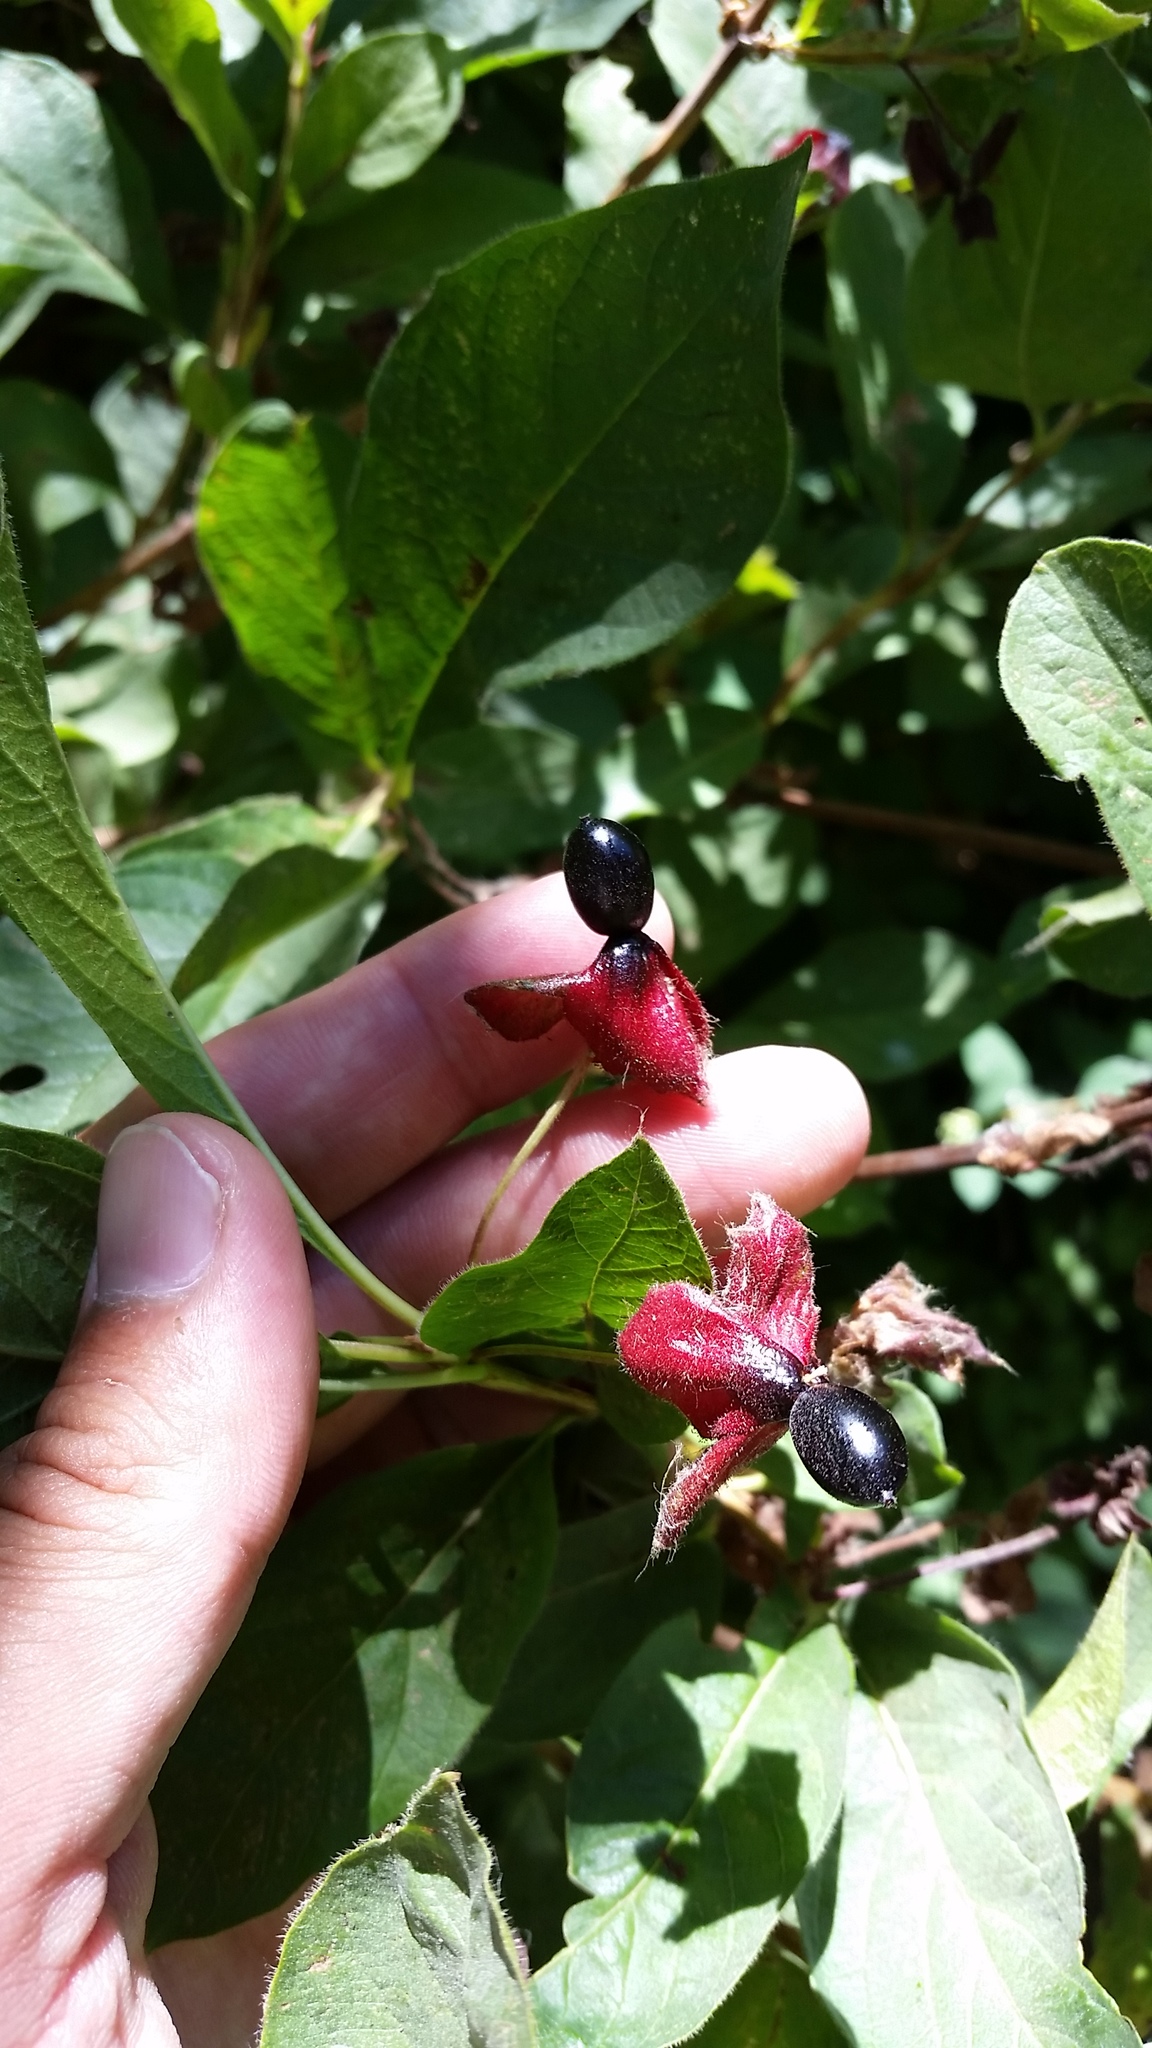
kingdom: Plantae
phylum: Tracheophyta
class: Magnoliopsida
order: Dipsacales
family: Caprifoliaceae
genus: Lonicera
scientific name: Lonicera involucrata
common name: Californian honeysuckle
